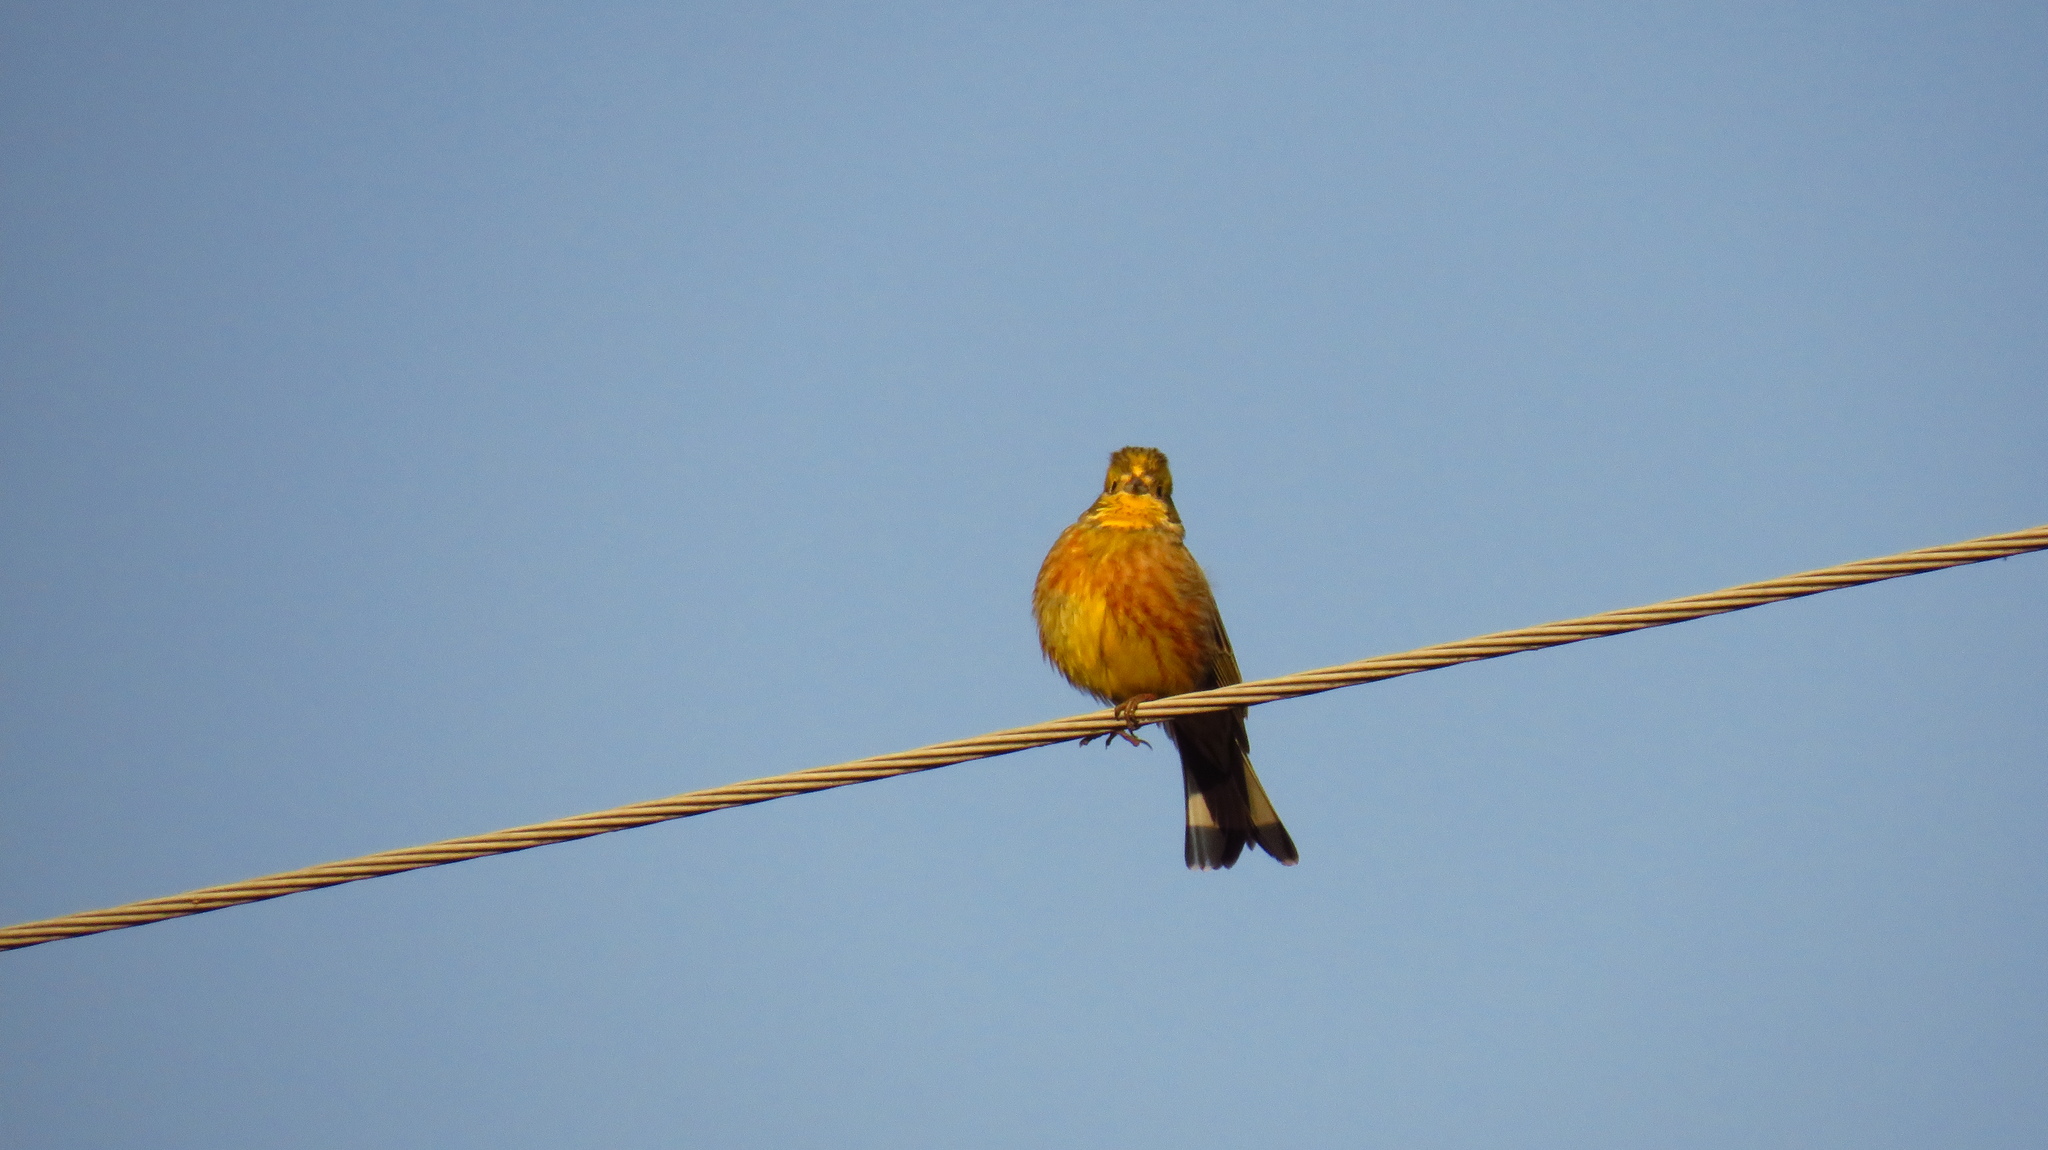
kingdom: Animalia
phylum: Chordata
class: Aves
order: Passeriformes
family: Emberizidae
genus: Emberiza
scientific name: Emberiza citrinella
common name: Yellowhammer
